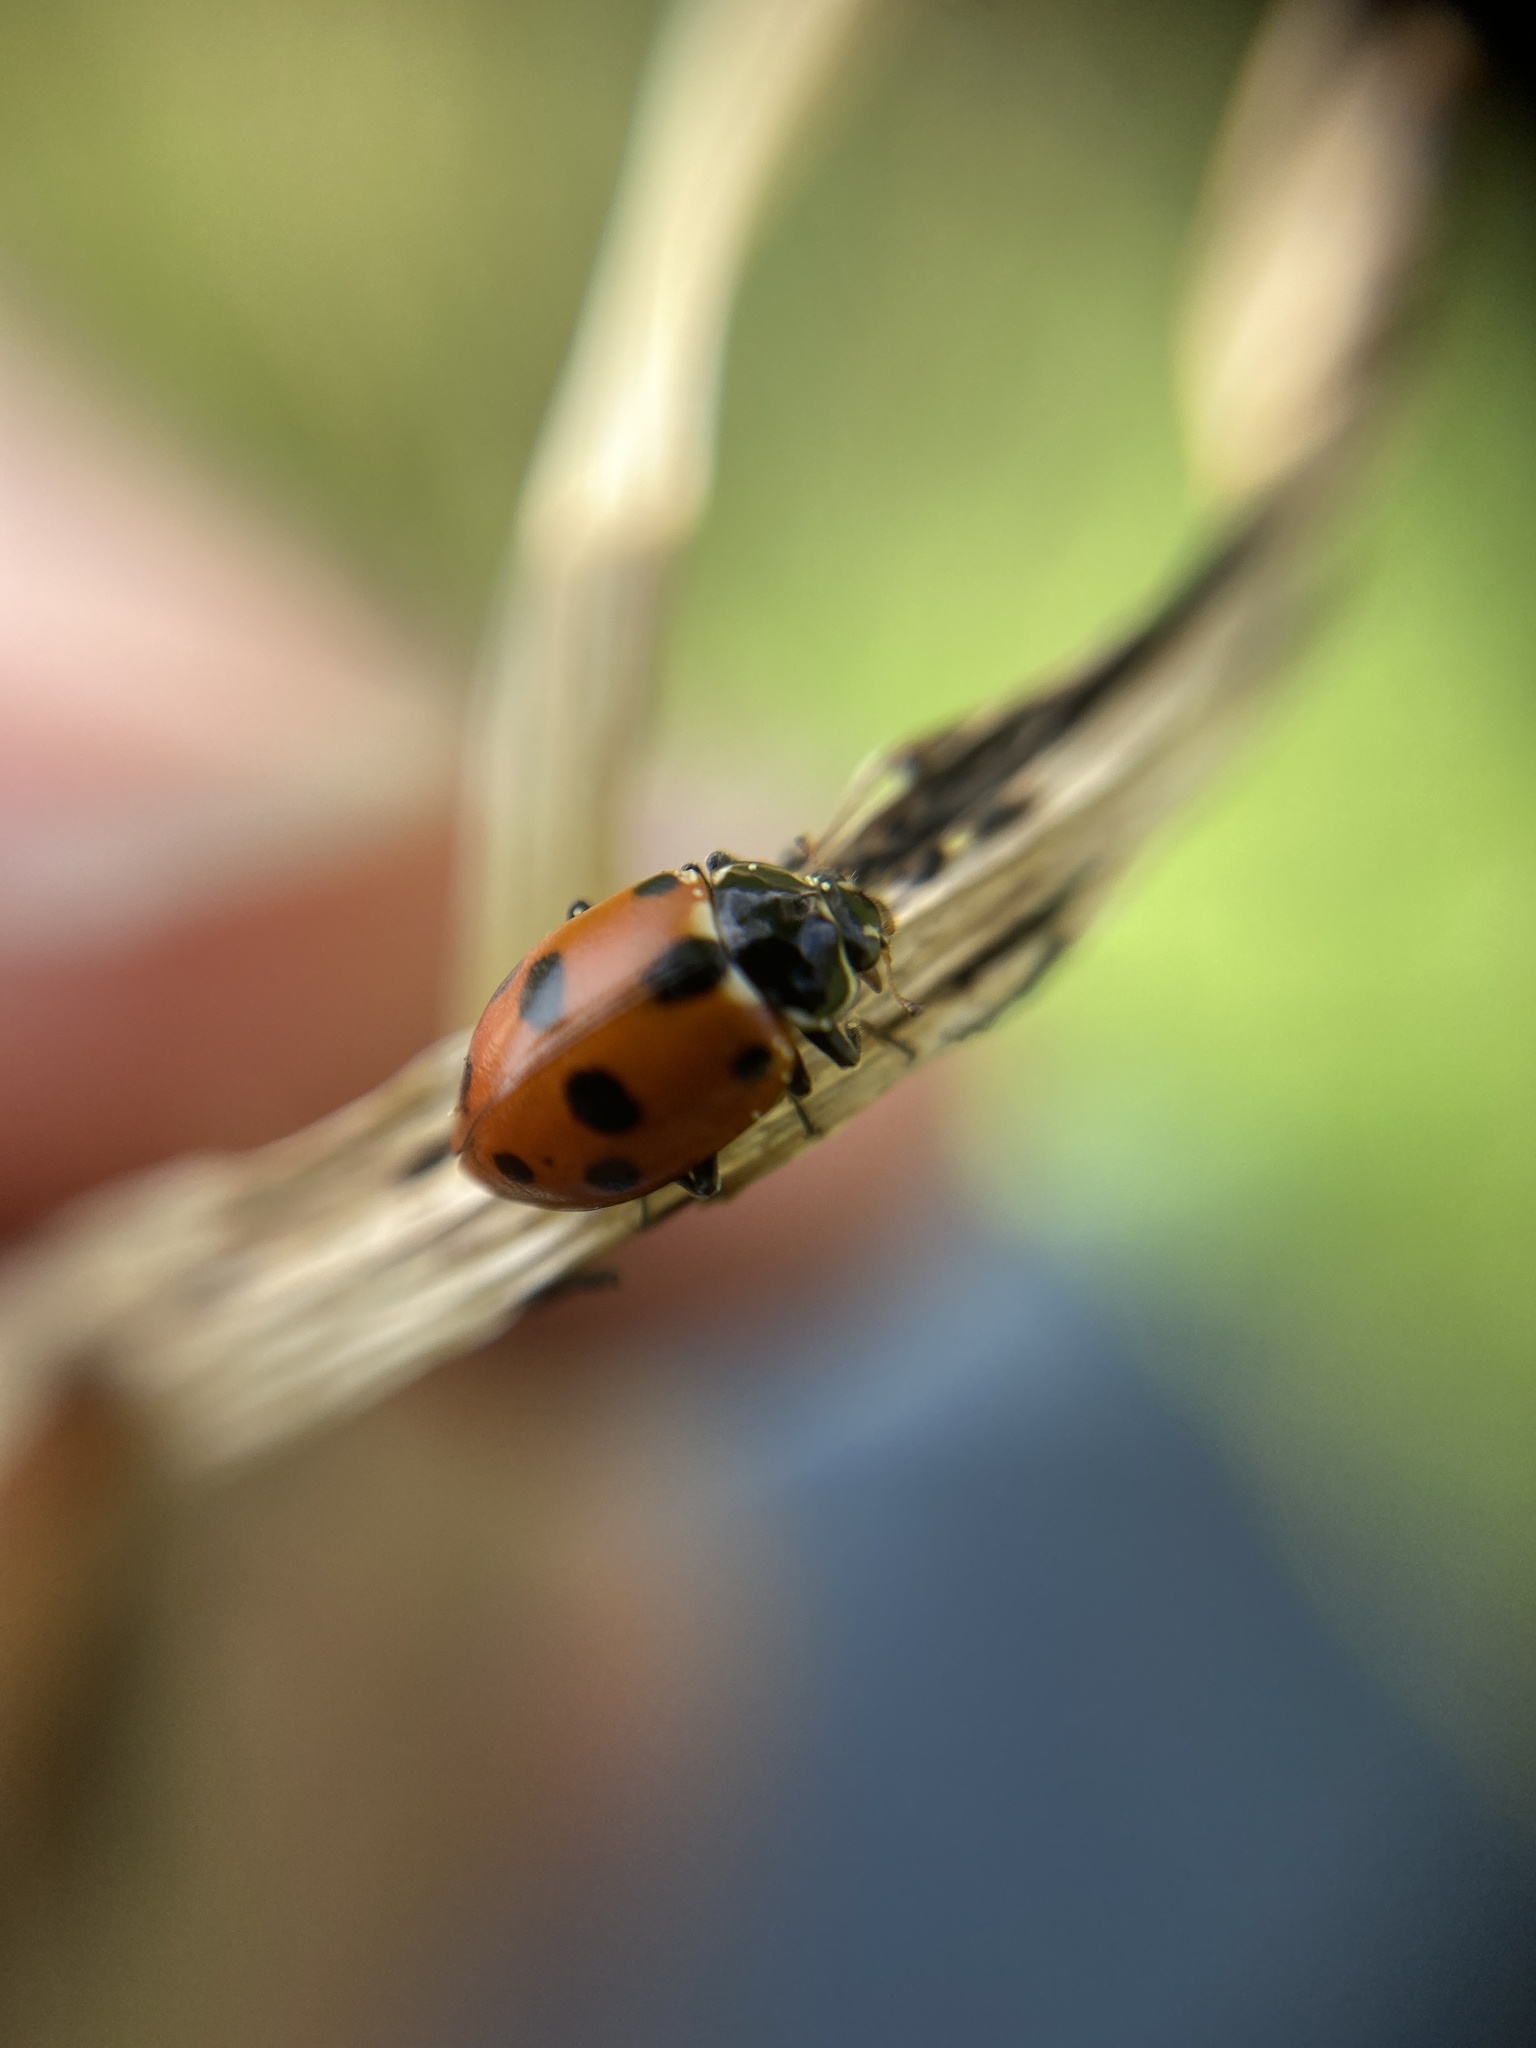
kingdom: Animalia
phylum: Arthropoda
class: Insecta
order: Coleoptera
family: Coccinellidae
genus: Hippodamia
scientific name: Hippodamia variegata
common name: Ladybird beetle
